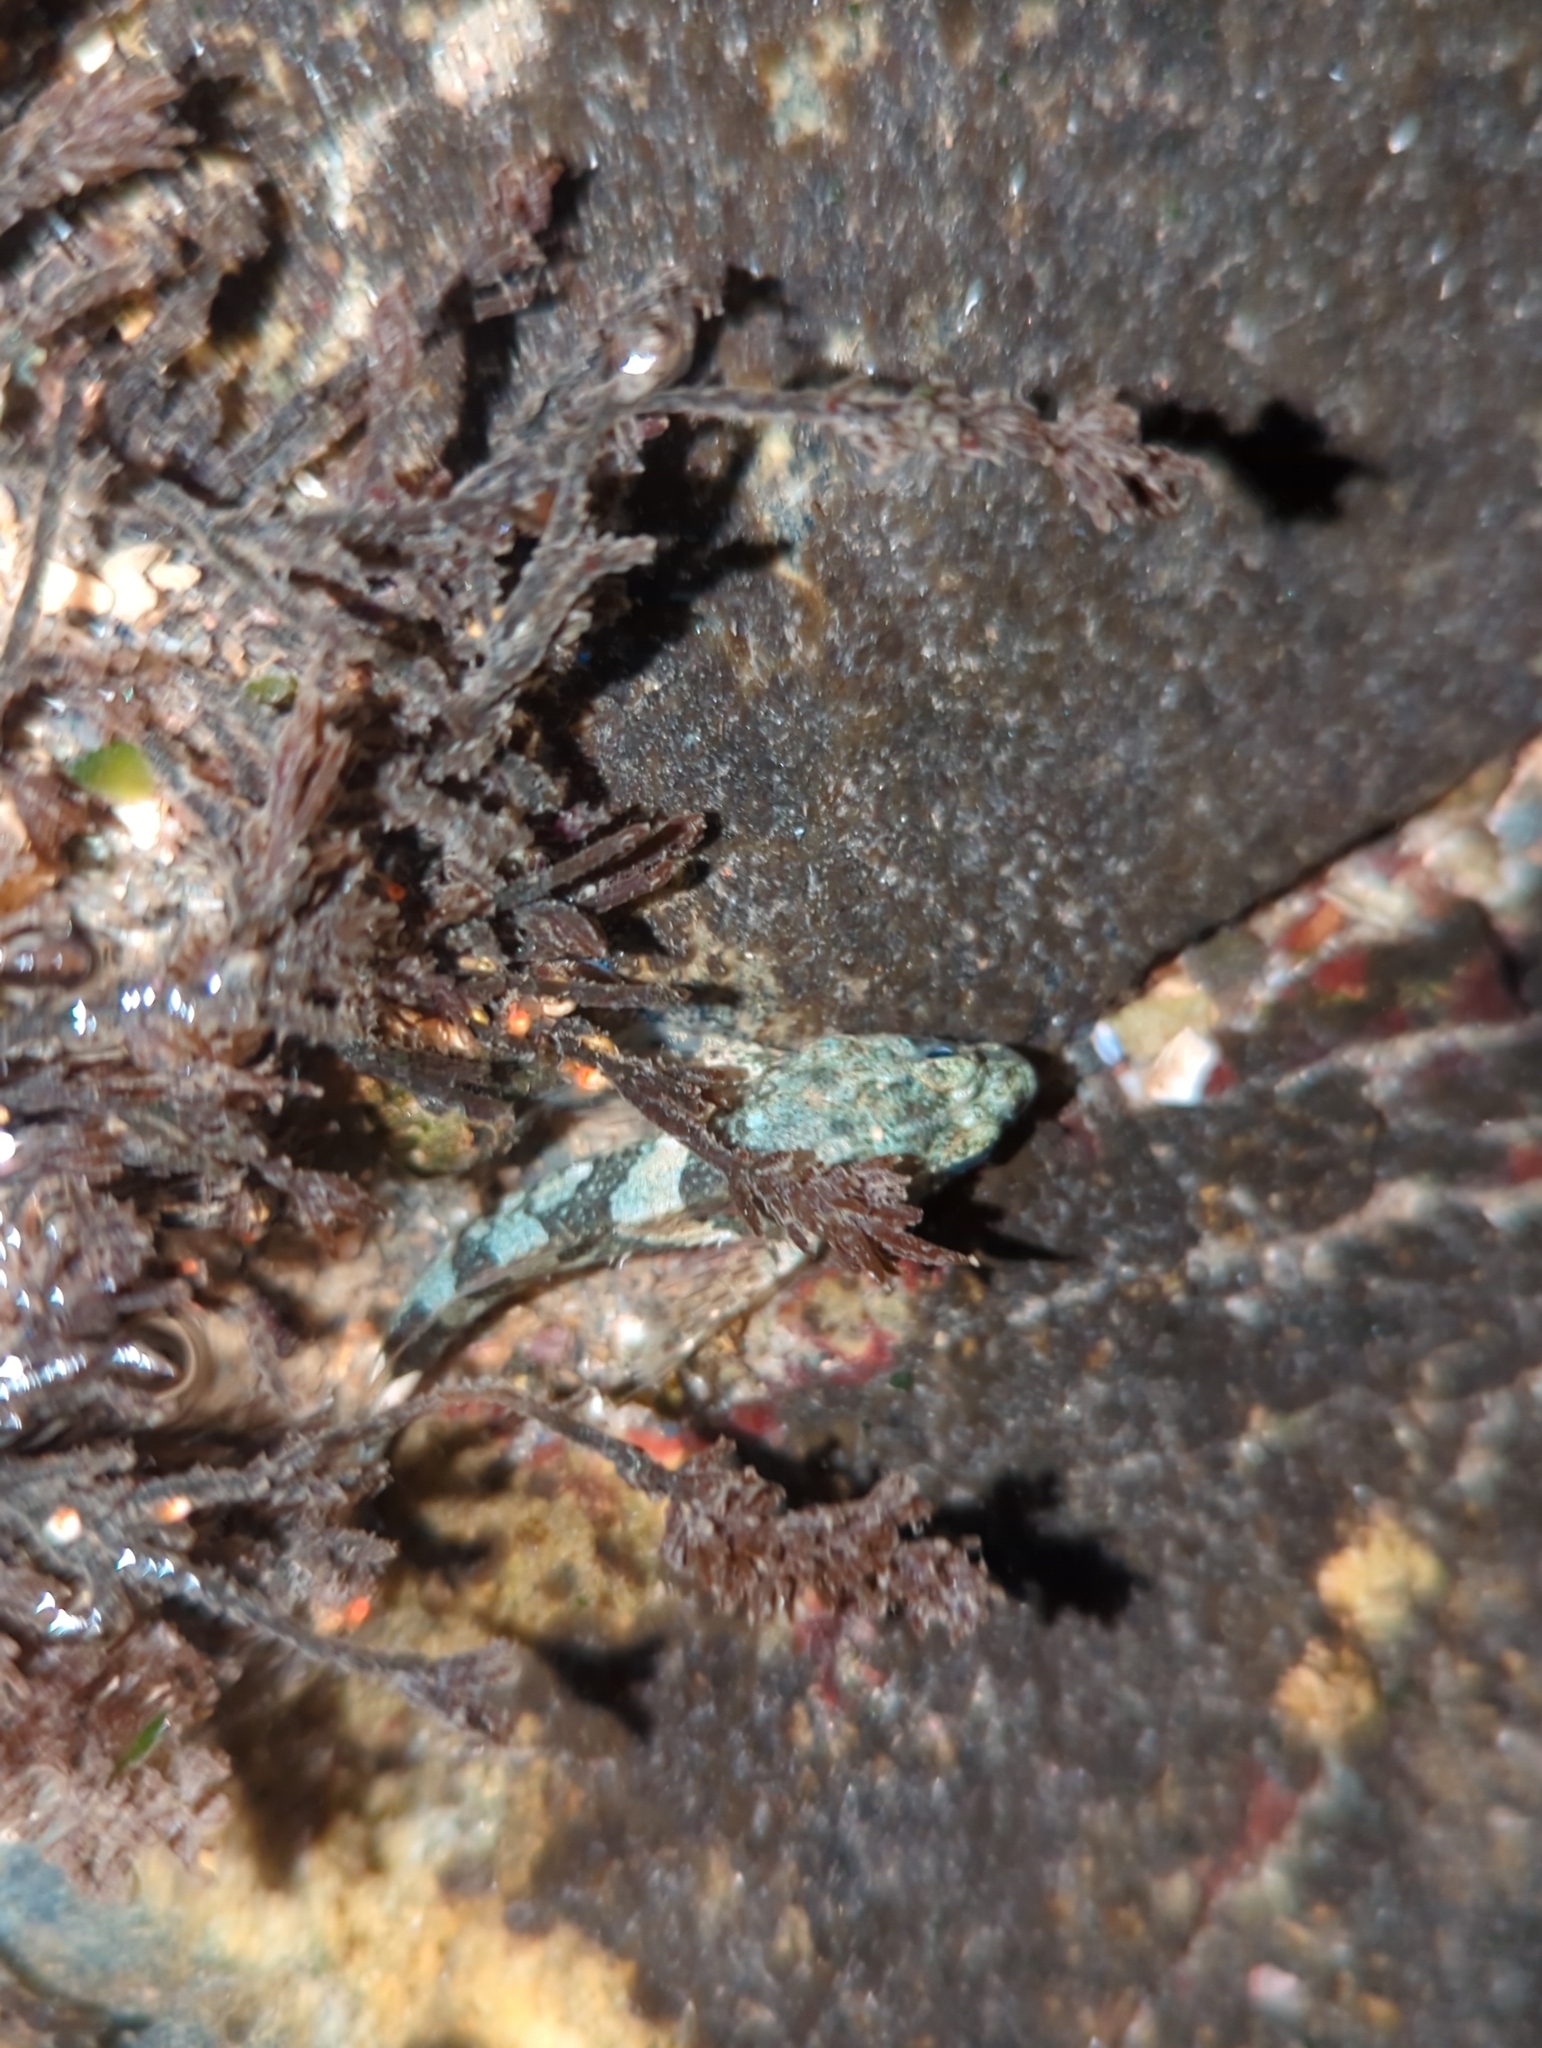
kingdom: Animalia
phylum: Chordata
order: Scorpaeniformes
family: Cottidae
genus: Oligocottus
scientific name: Oligocottus maculosus
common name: Tidepool sculpin
